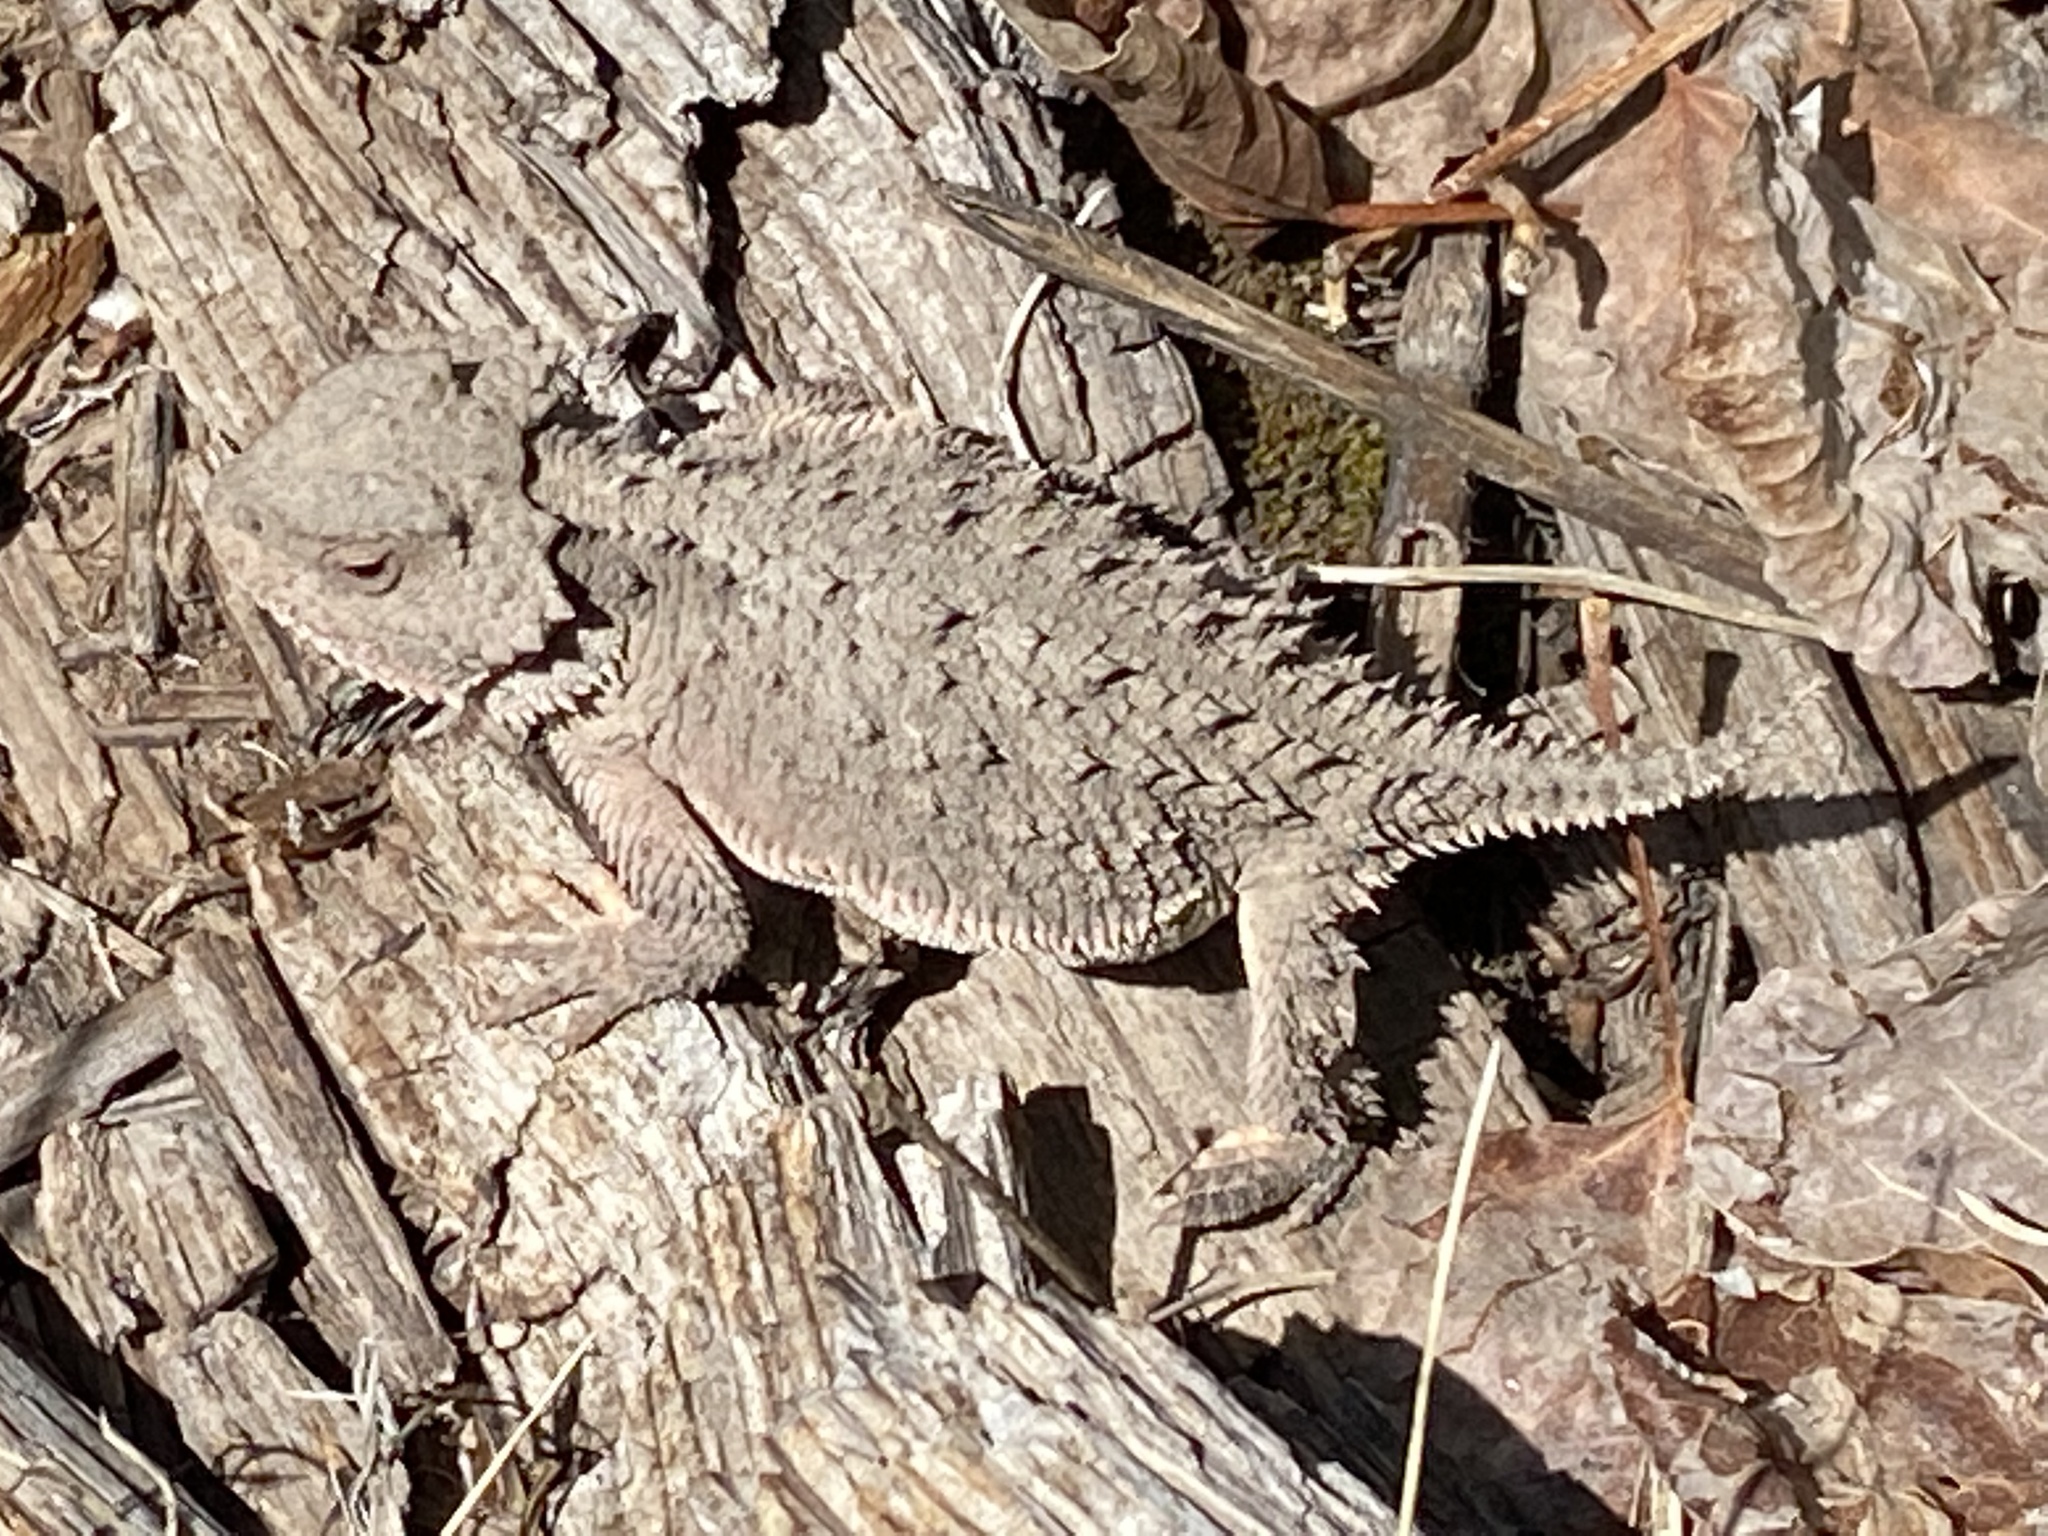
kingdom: Animalia
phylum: Chordata
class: Squamata
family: Phrynosomatidae
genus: Phrynosoma
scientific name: Phrynosoma hernandesi
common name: Greater short-horned lizard
